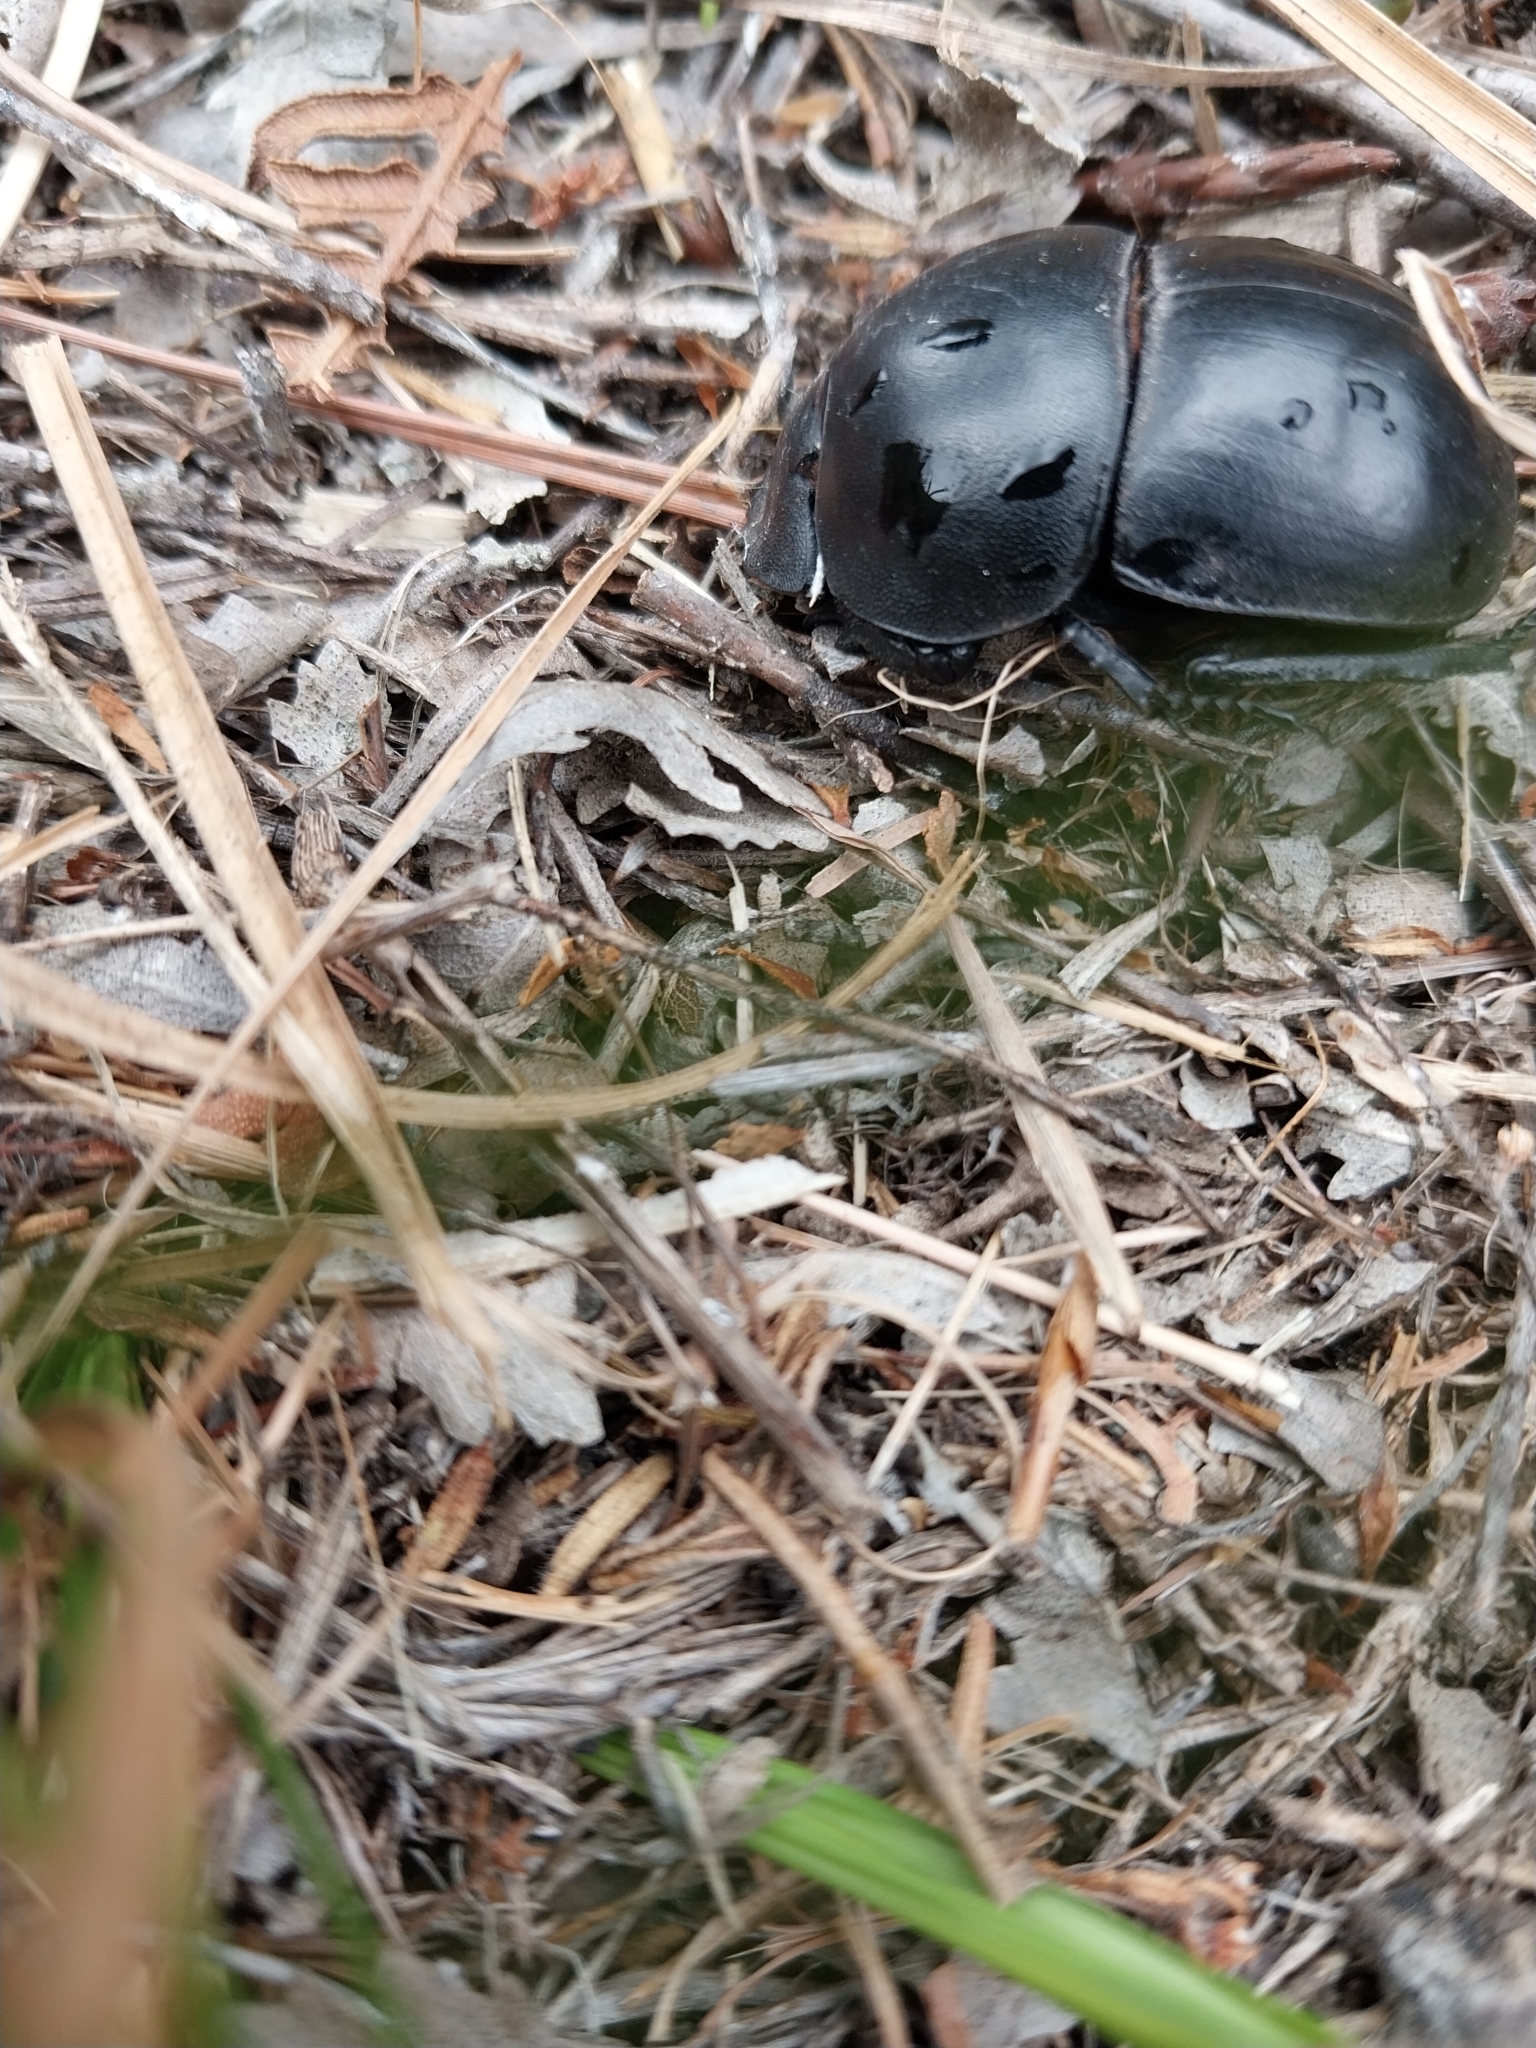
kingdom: Animalia
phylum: Arthropoda
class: Insecta
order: Coleoptera
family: Scarabaeidae
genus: Circellium
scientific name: Circellium bacchus
